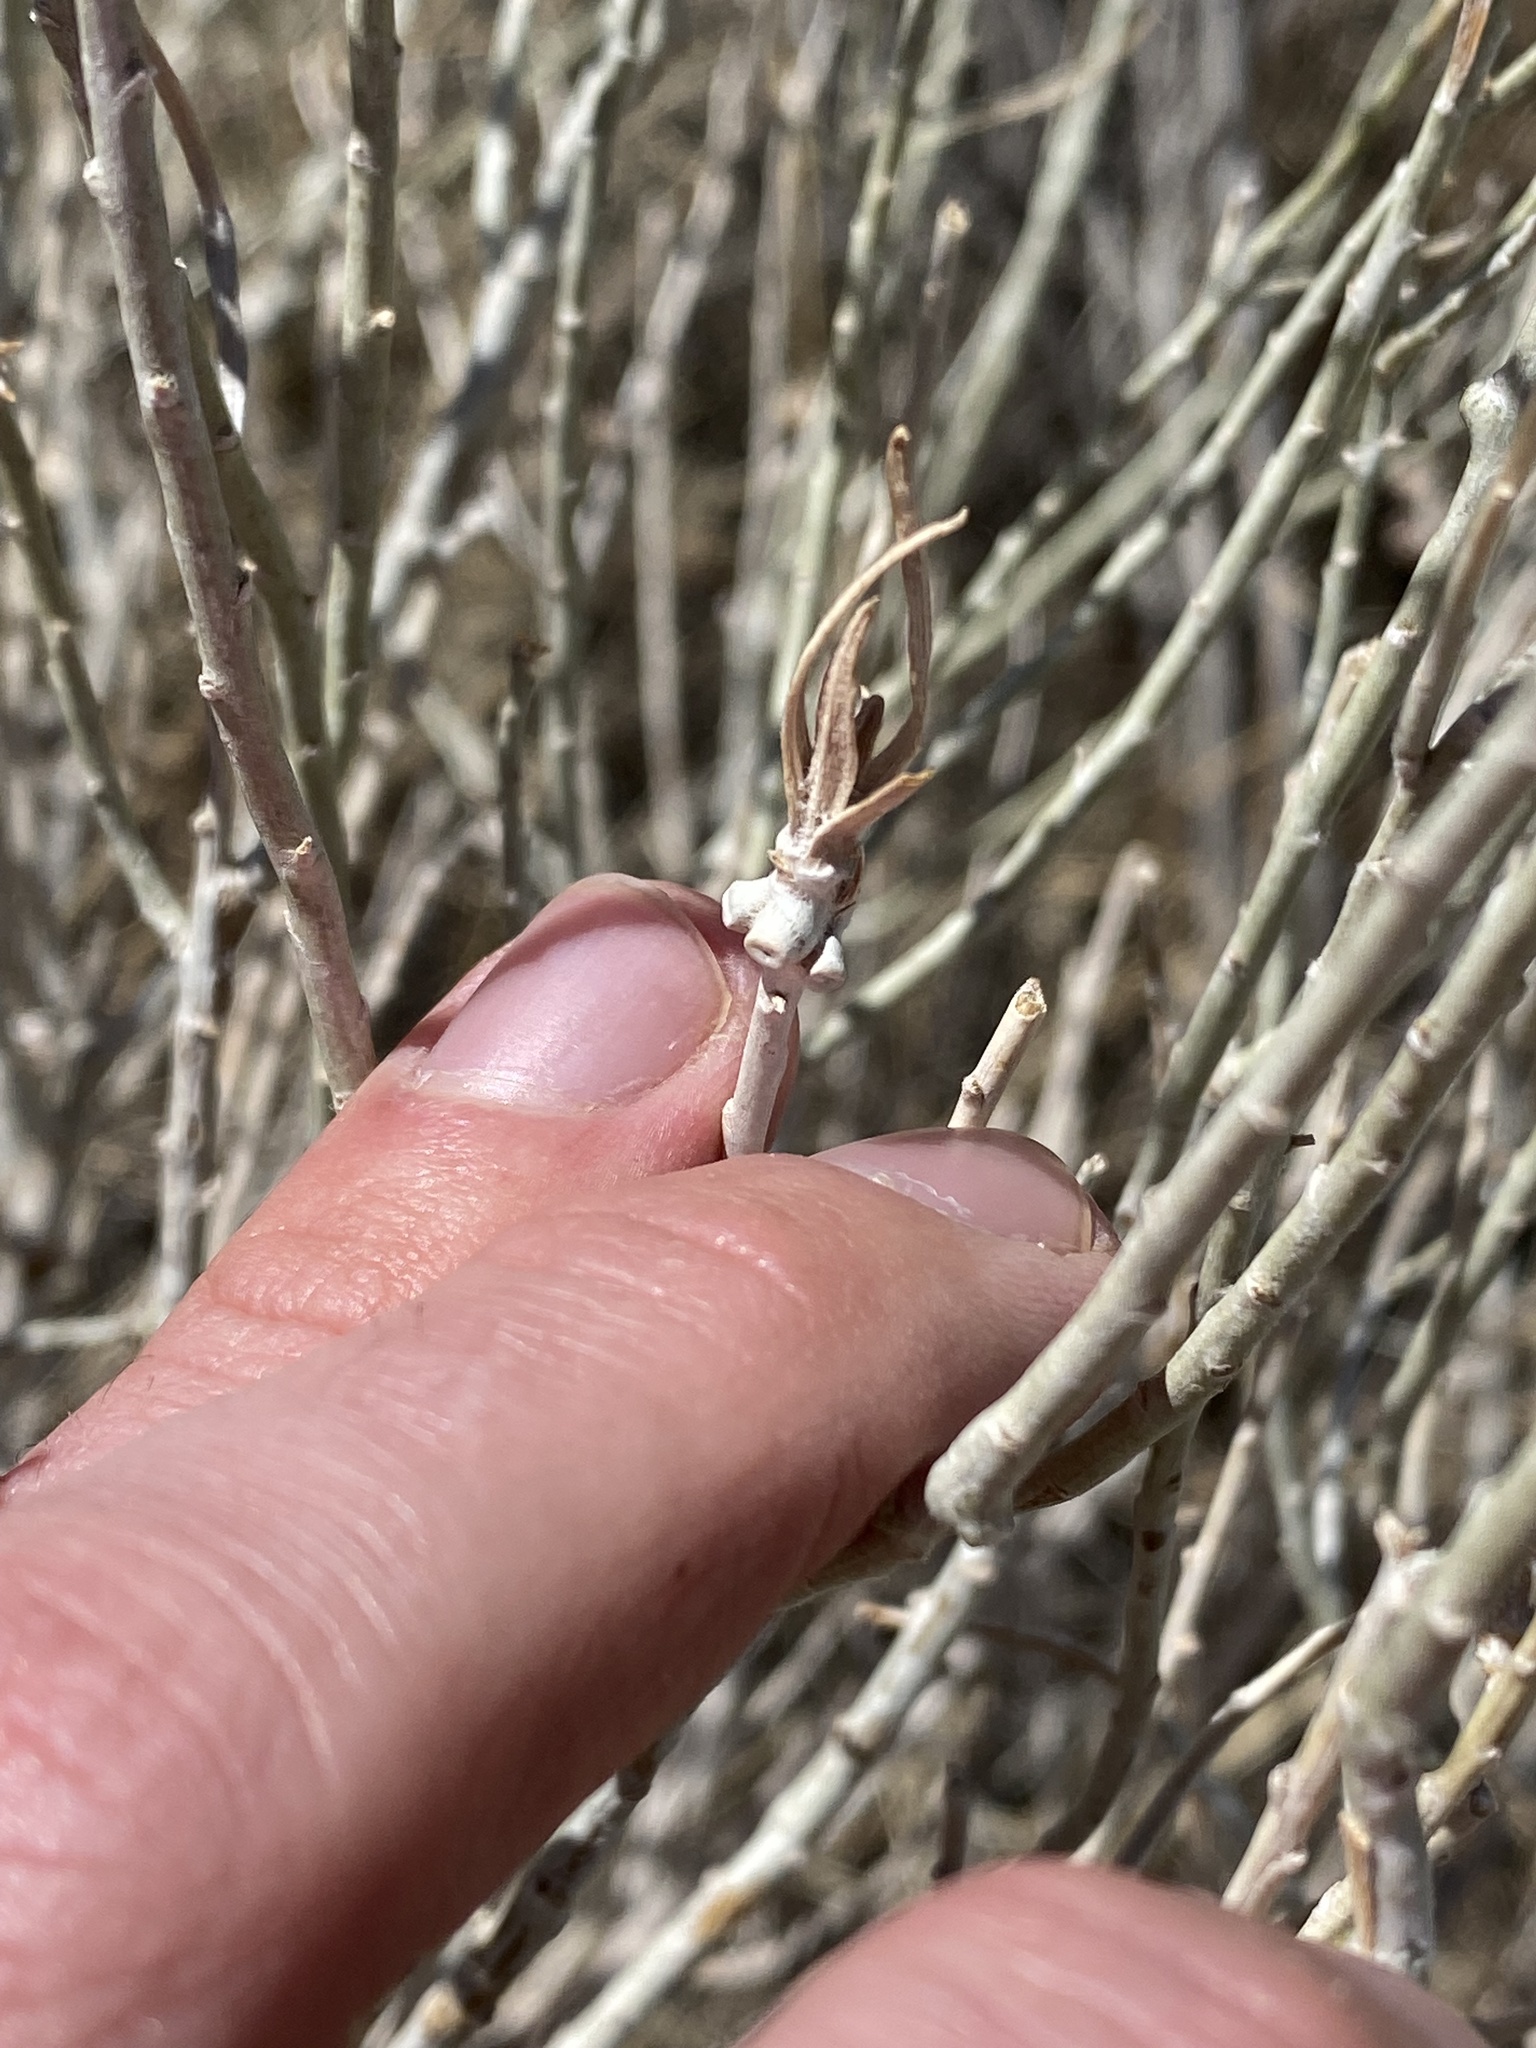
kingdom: Animalia
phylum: Arthropoda
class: Insecta
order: Diptera
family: Cecidomyiidae
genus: Rhopalomyia
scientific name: Rhopalomyia chrysothamni
